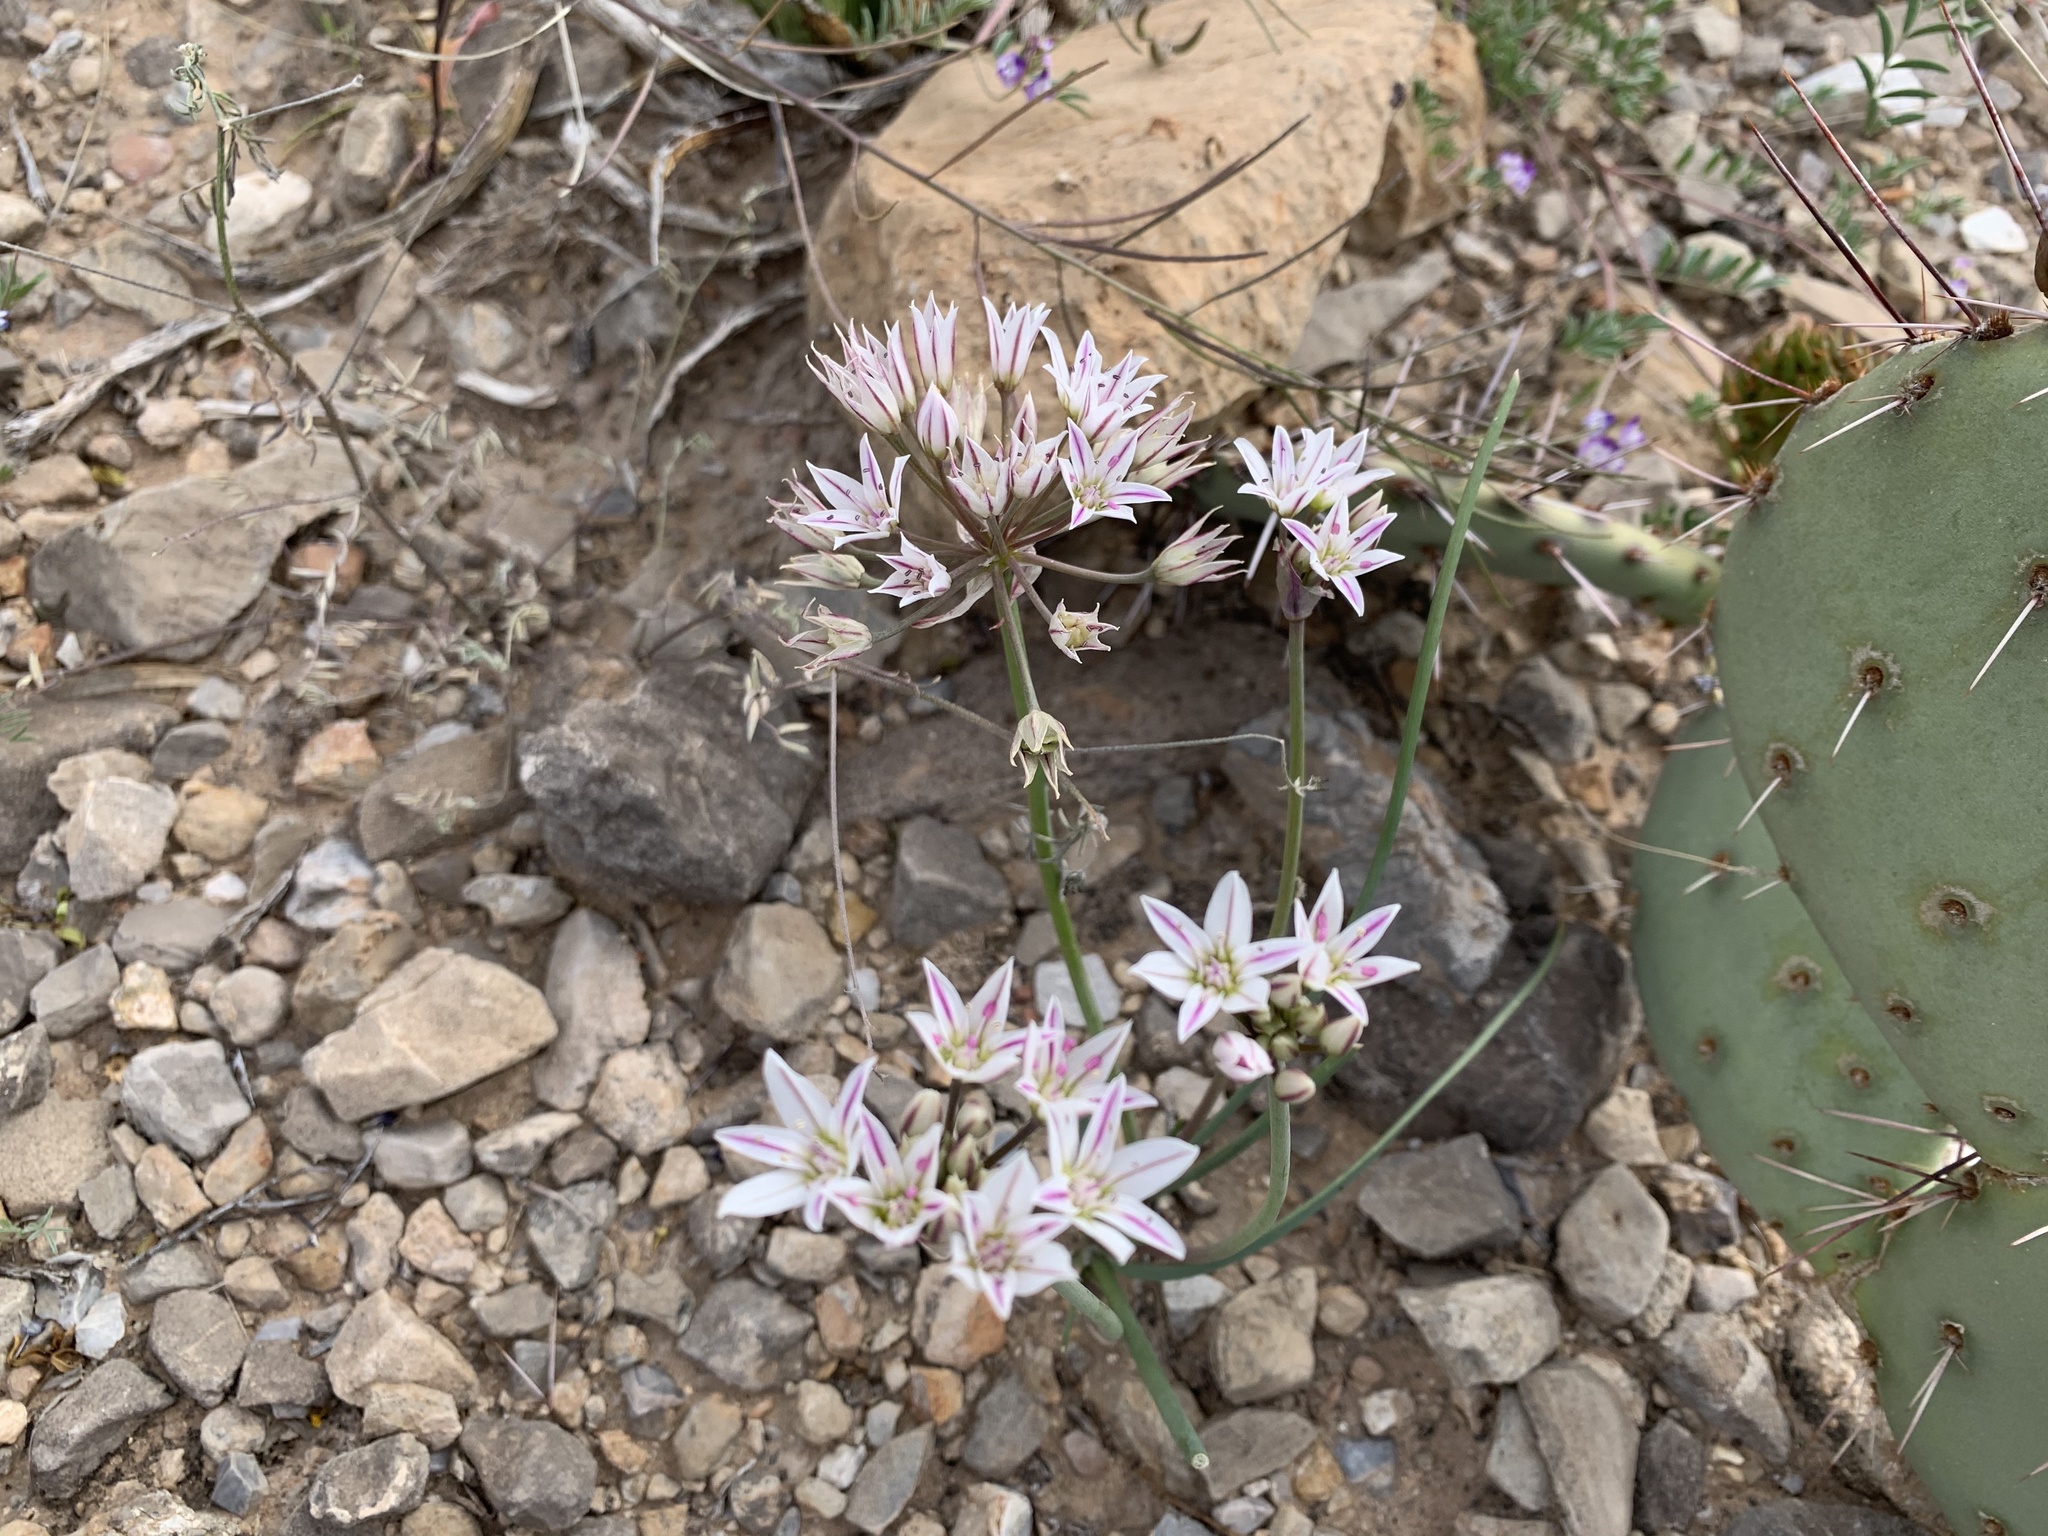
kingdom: Plantae
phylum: Tracheophyta
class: Liliopsida
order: Asparagales
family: Amaryllidaceae
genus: Allium
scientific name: Allium macropetalum
